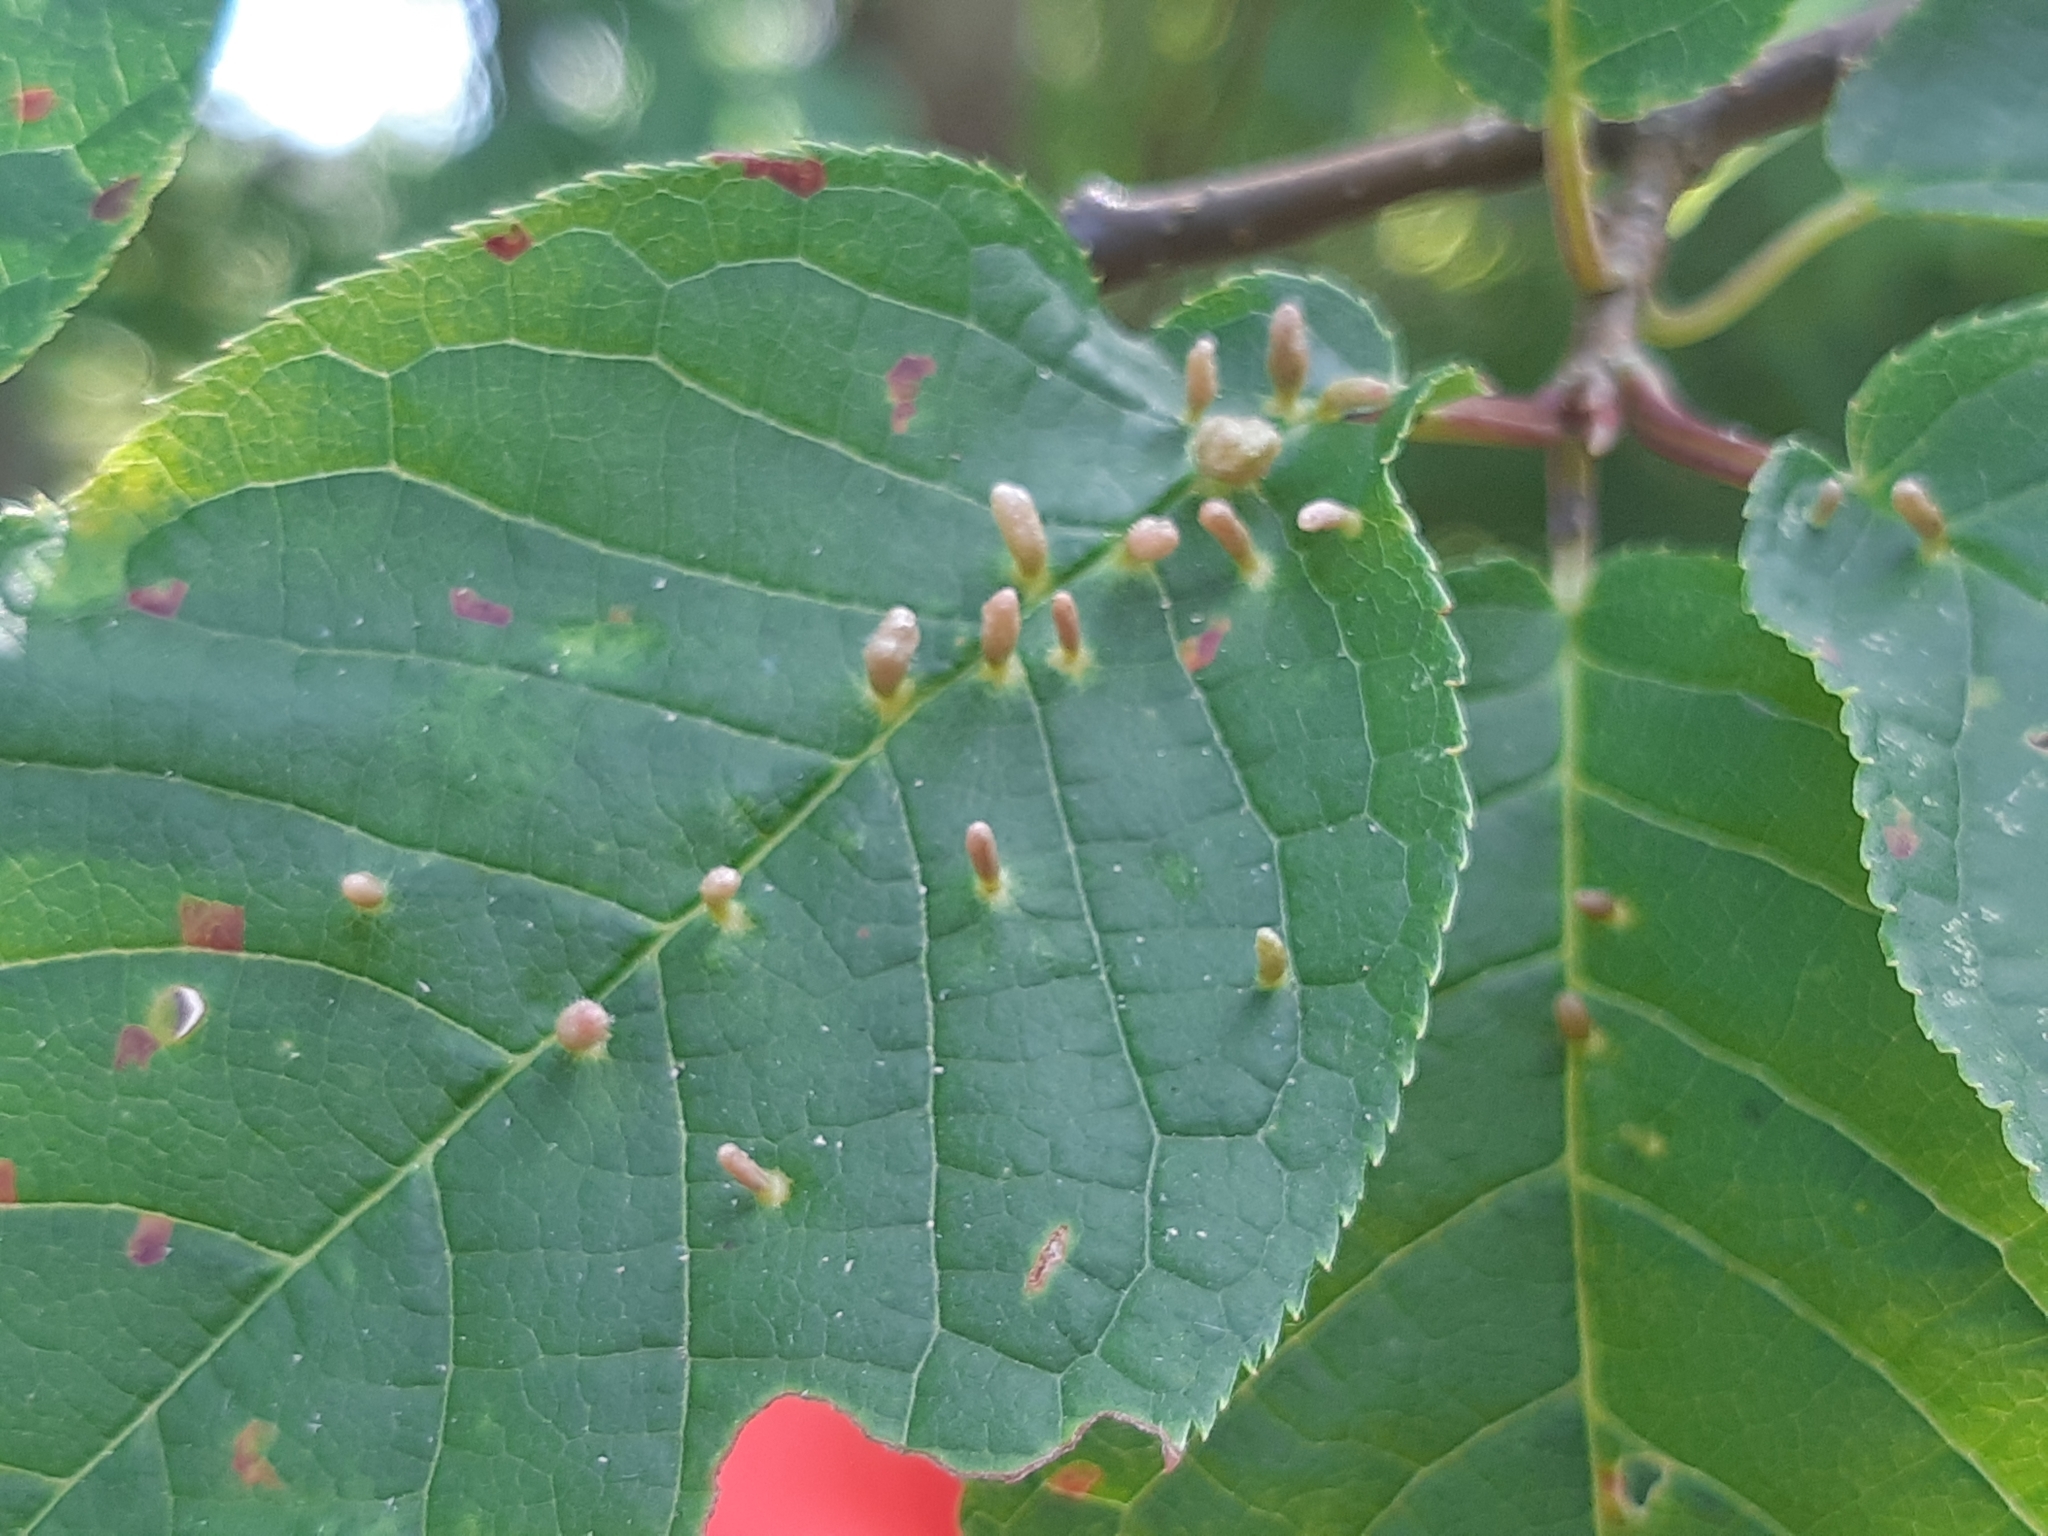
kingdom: Animalia
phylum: Arthropoda
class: Arachnida
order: Trombidiformes
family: Eriophyidae
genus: Phyllocoptes
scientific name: Phyllocoptes eupadi
